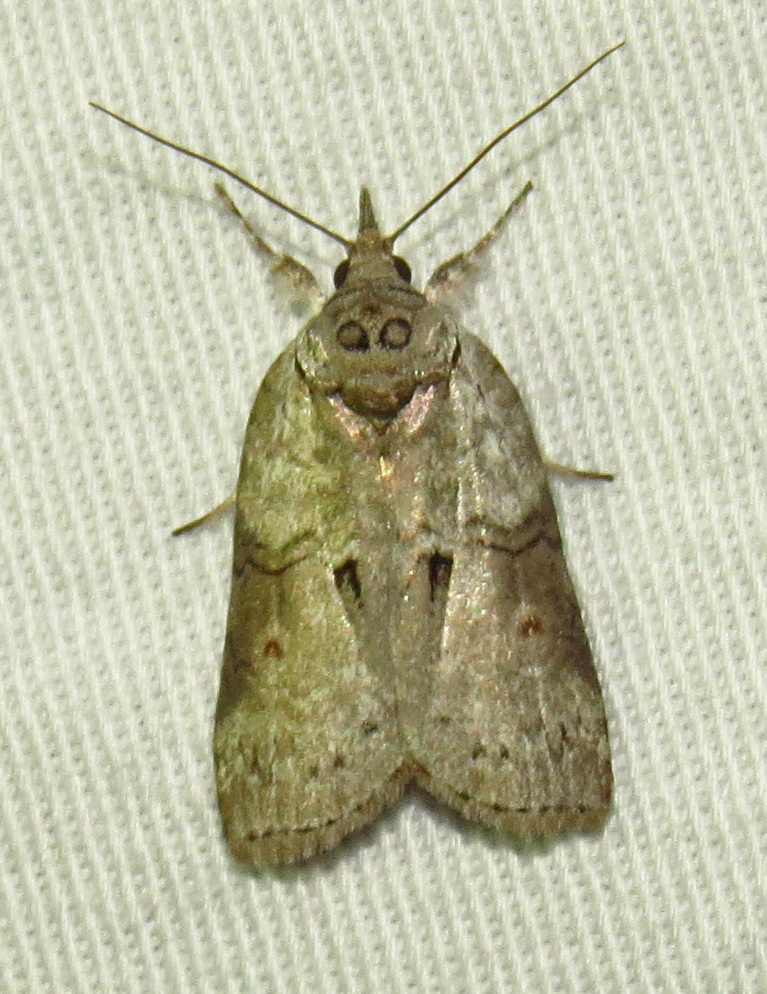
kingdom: Animalia
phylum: Arthropoda
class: Insecta
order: Lepidoptera
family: Nolidae
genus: Nycteola
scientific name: Nycteola metaspilella
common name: Forgotten frigid owlet
